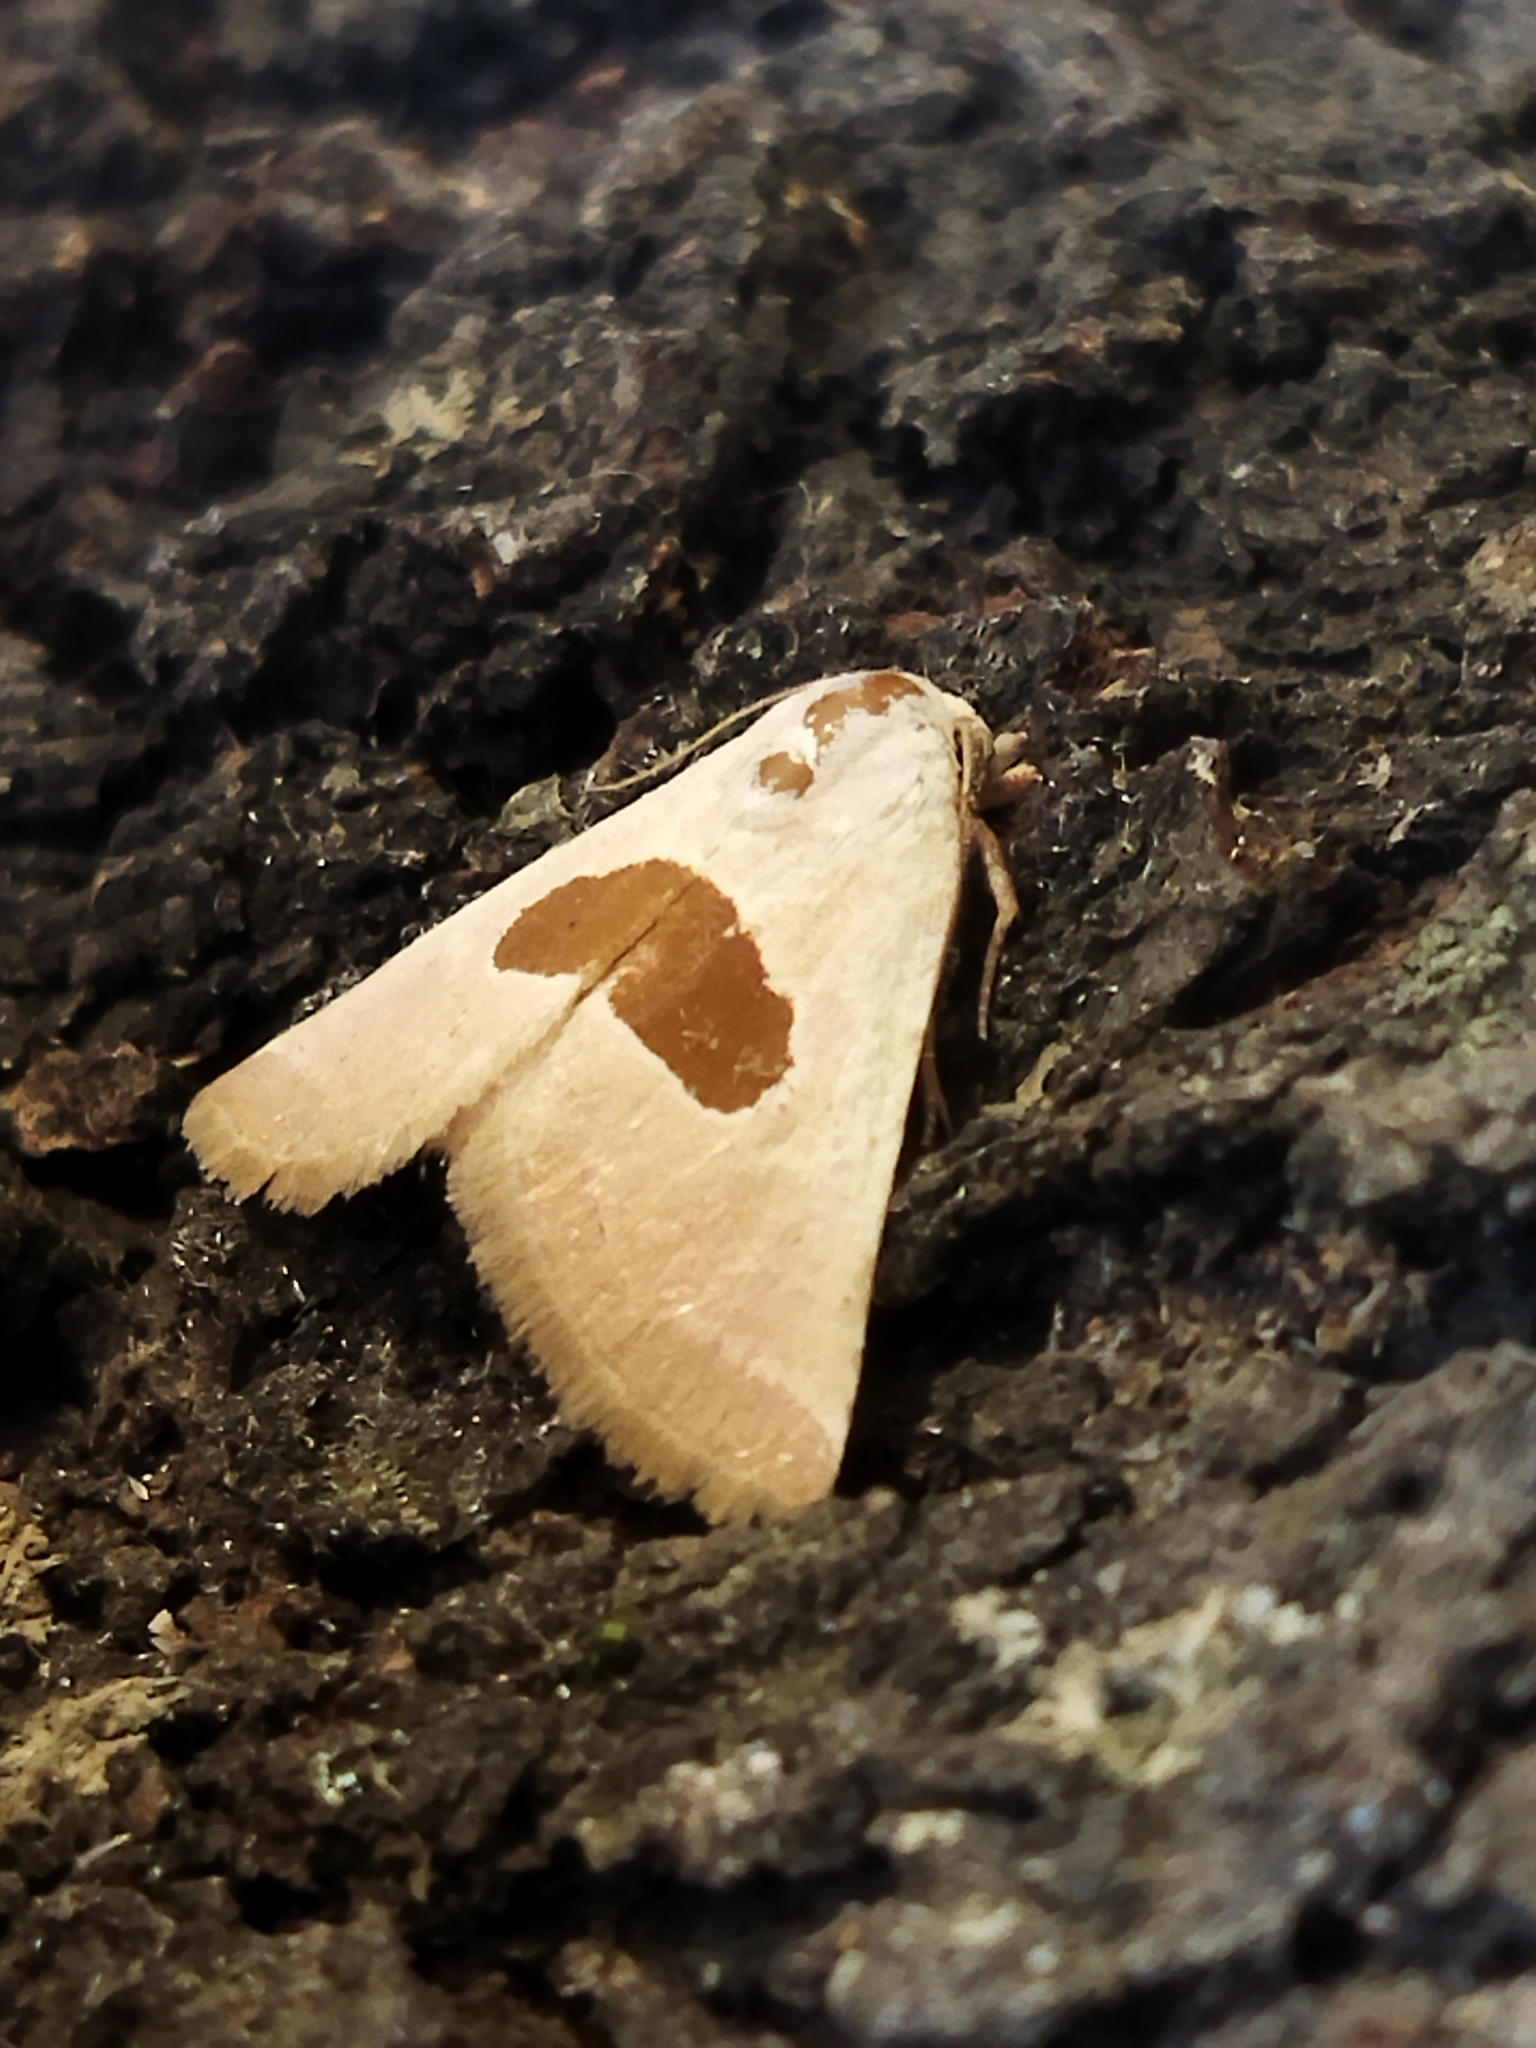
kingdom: Animalia
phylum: Arthropoda
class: Insecta
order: Lepidoptera
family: Noctuidae
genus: Calymma
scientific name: Calymma communimacula
